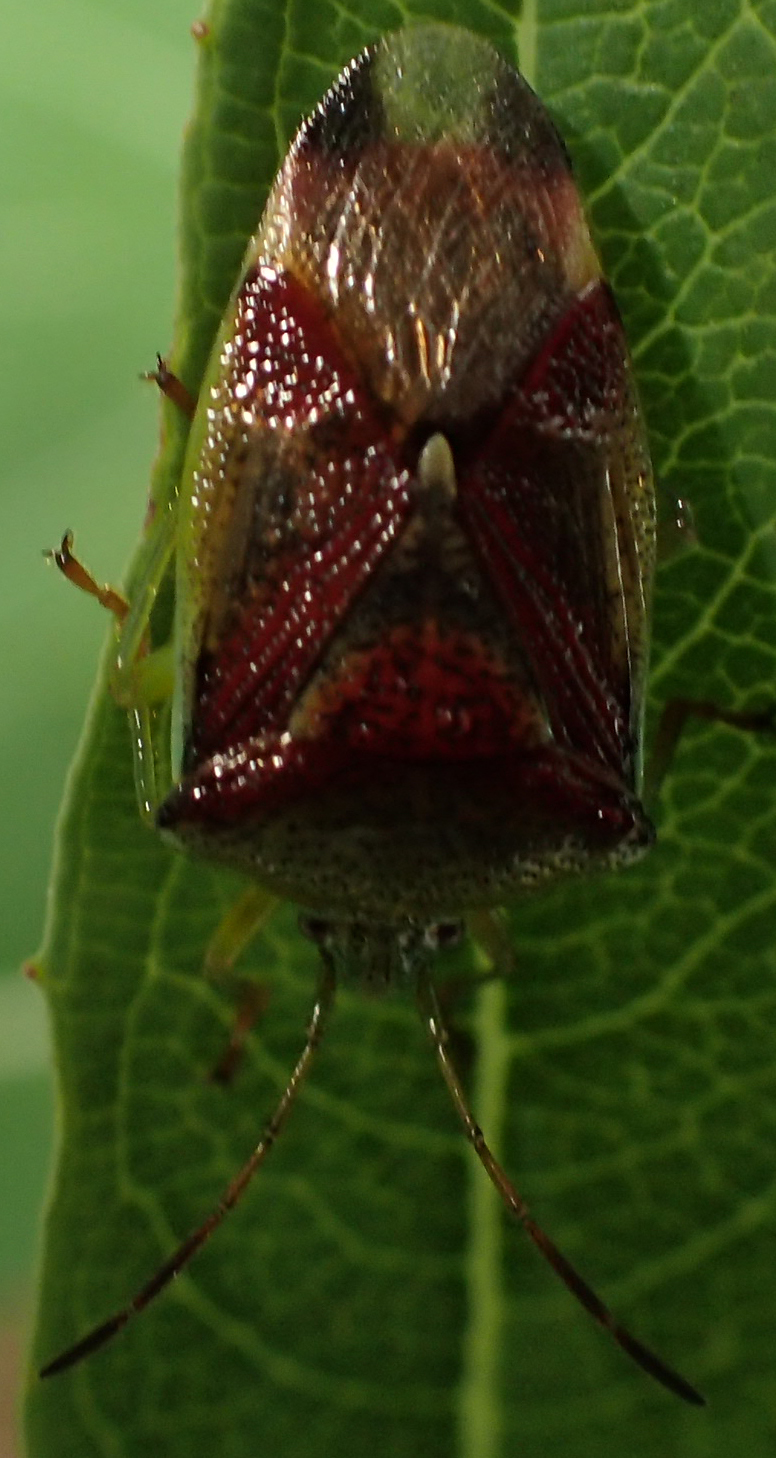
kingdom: Animalia
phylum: Arthropoda
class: Insecta
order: Hemiptera
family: Acanthosomatidae
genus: Elasmostethus
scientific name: Elasmostethus interstinctus
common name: Birch shieldbug
